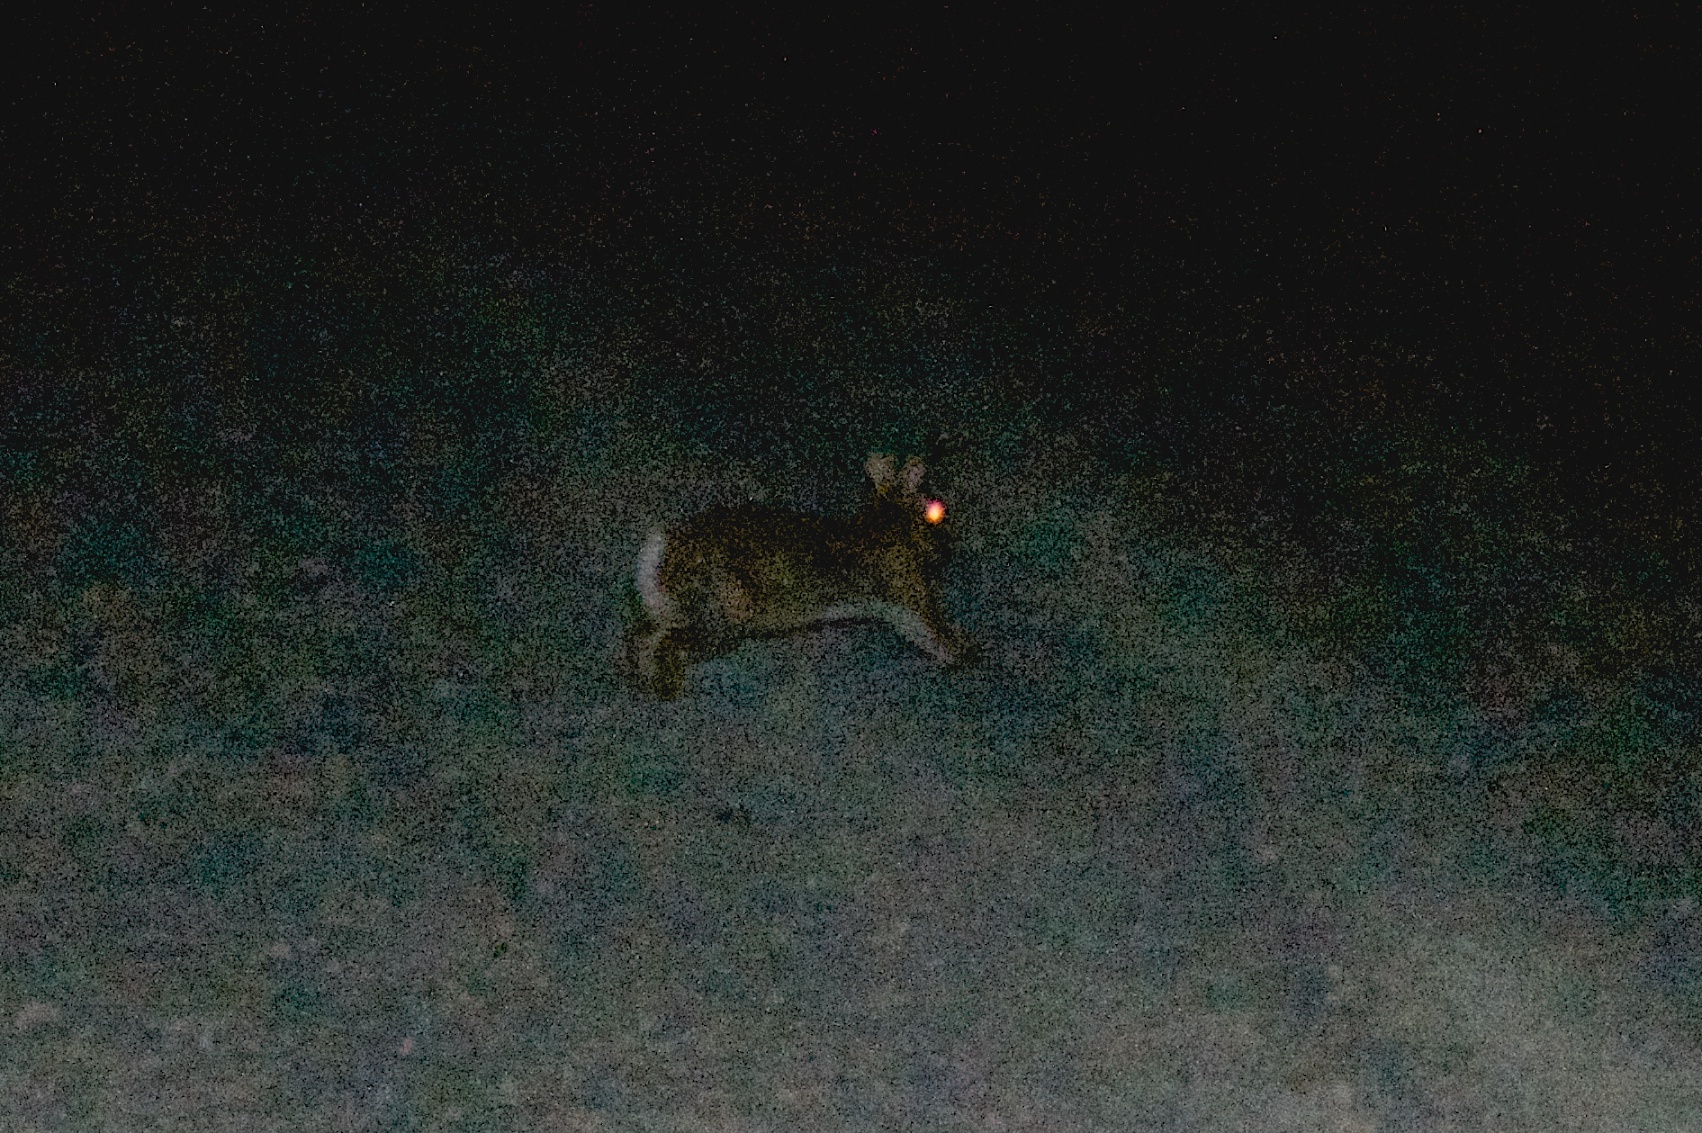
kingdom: Animalia
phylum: Chordata
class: Mammalia
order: Lagomorpha
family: Leporidae
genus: Oryctolagus
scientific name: Oryctolagus cuniculus
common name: European rabbit
